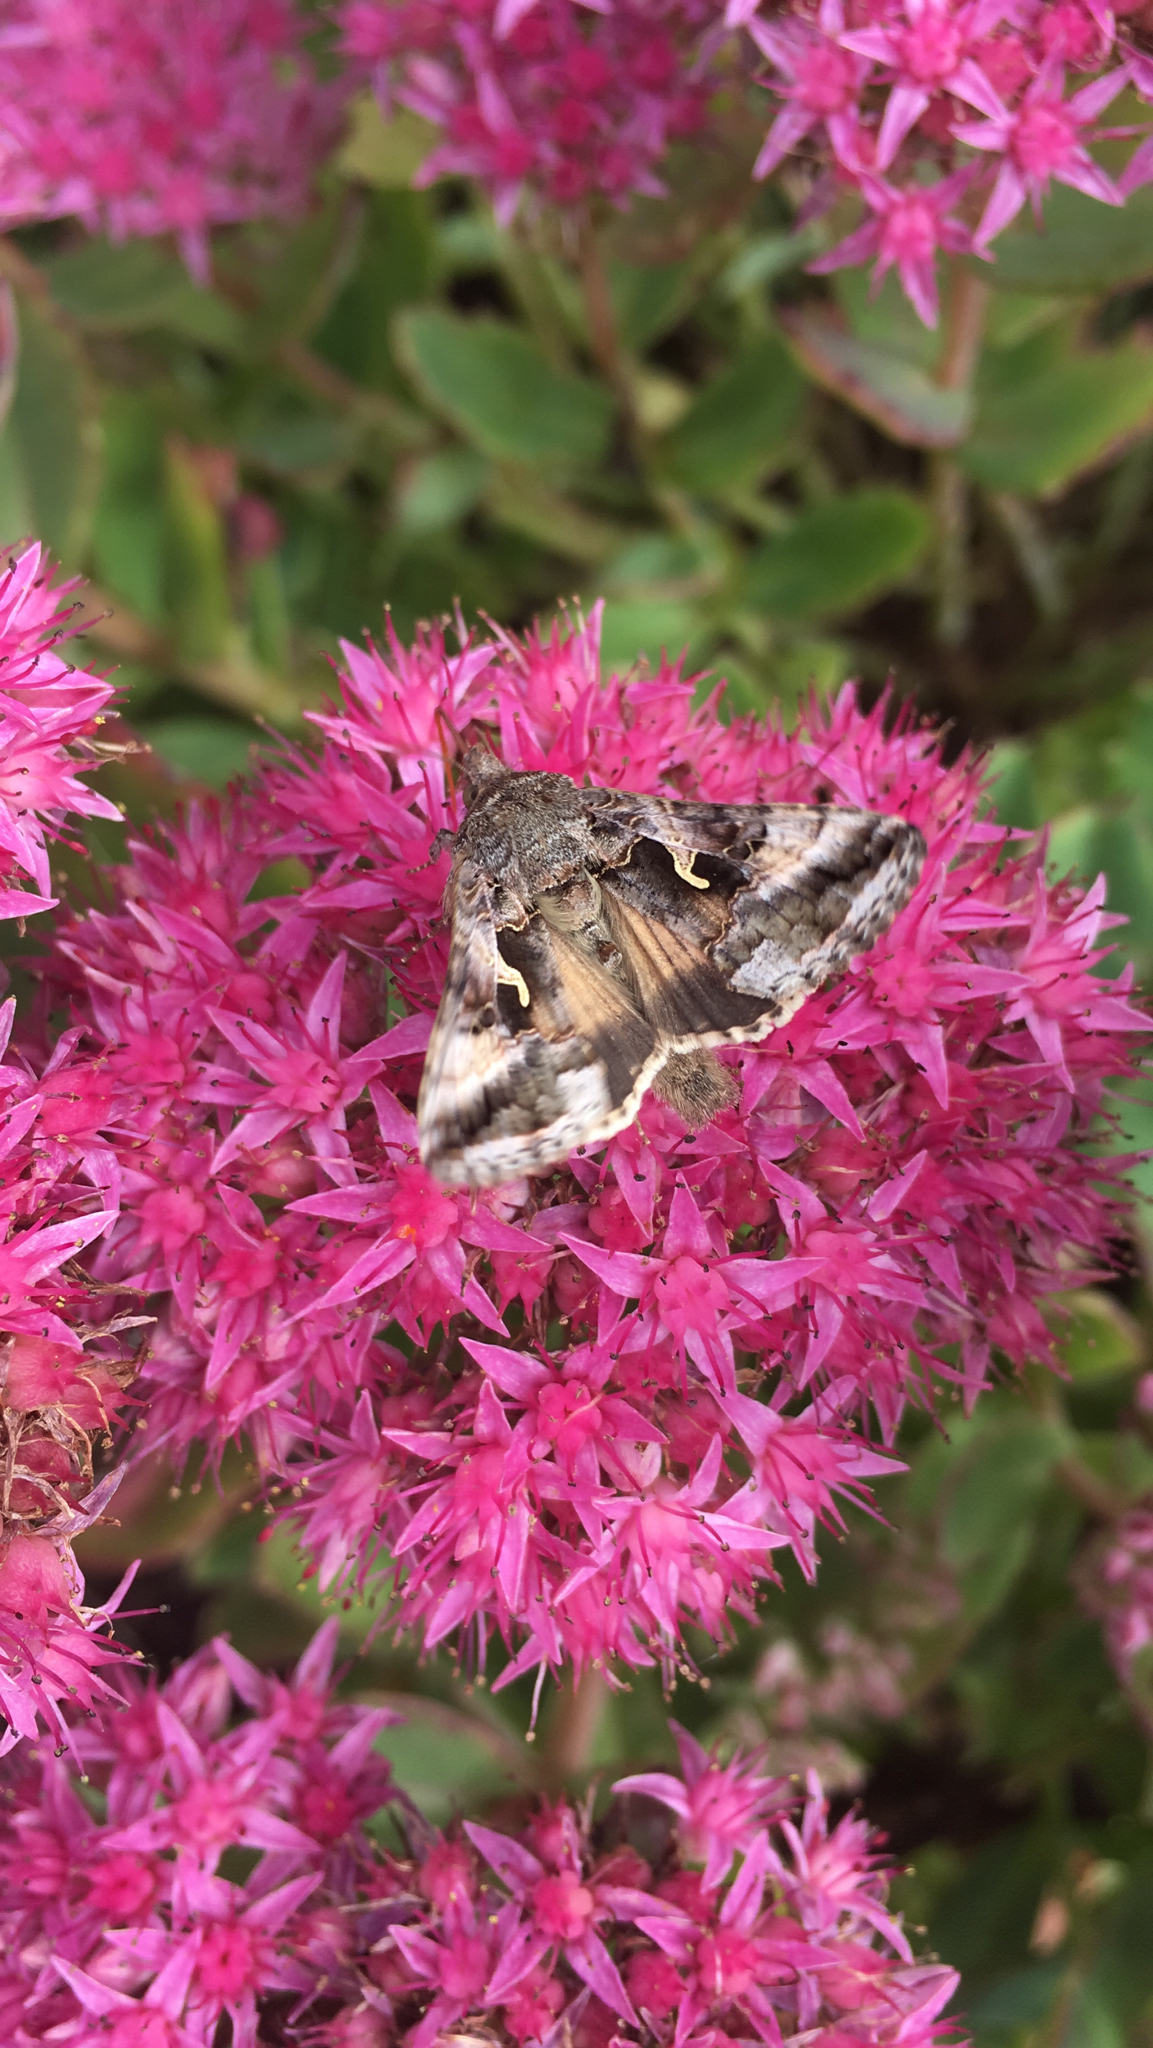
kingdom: Animalia
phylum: Arthropoda
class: Insecta
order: Lepidoptera
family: Noctuidae
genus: Autographa
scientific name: Autographa gamma
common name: Silver y
